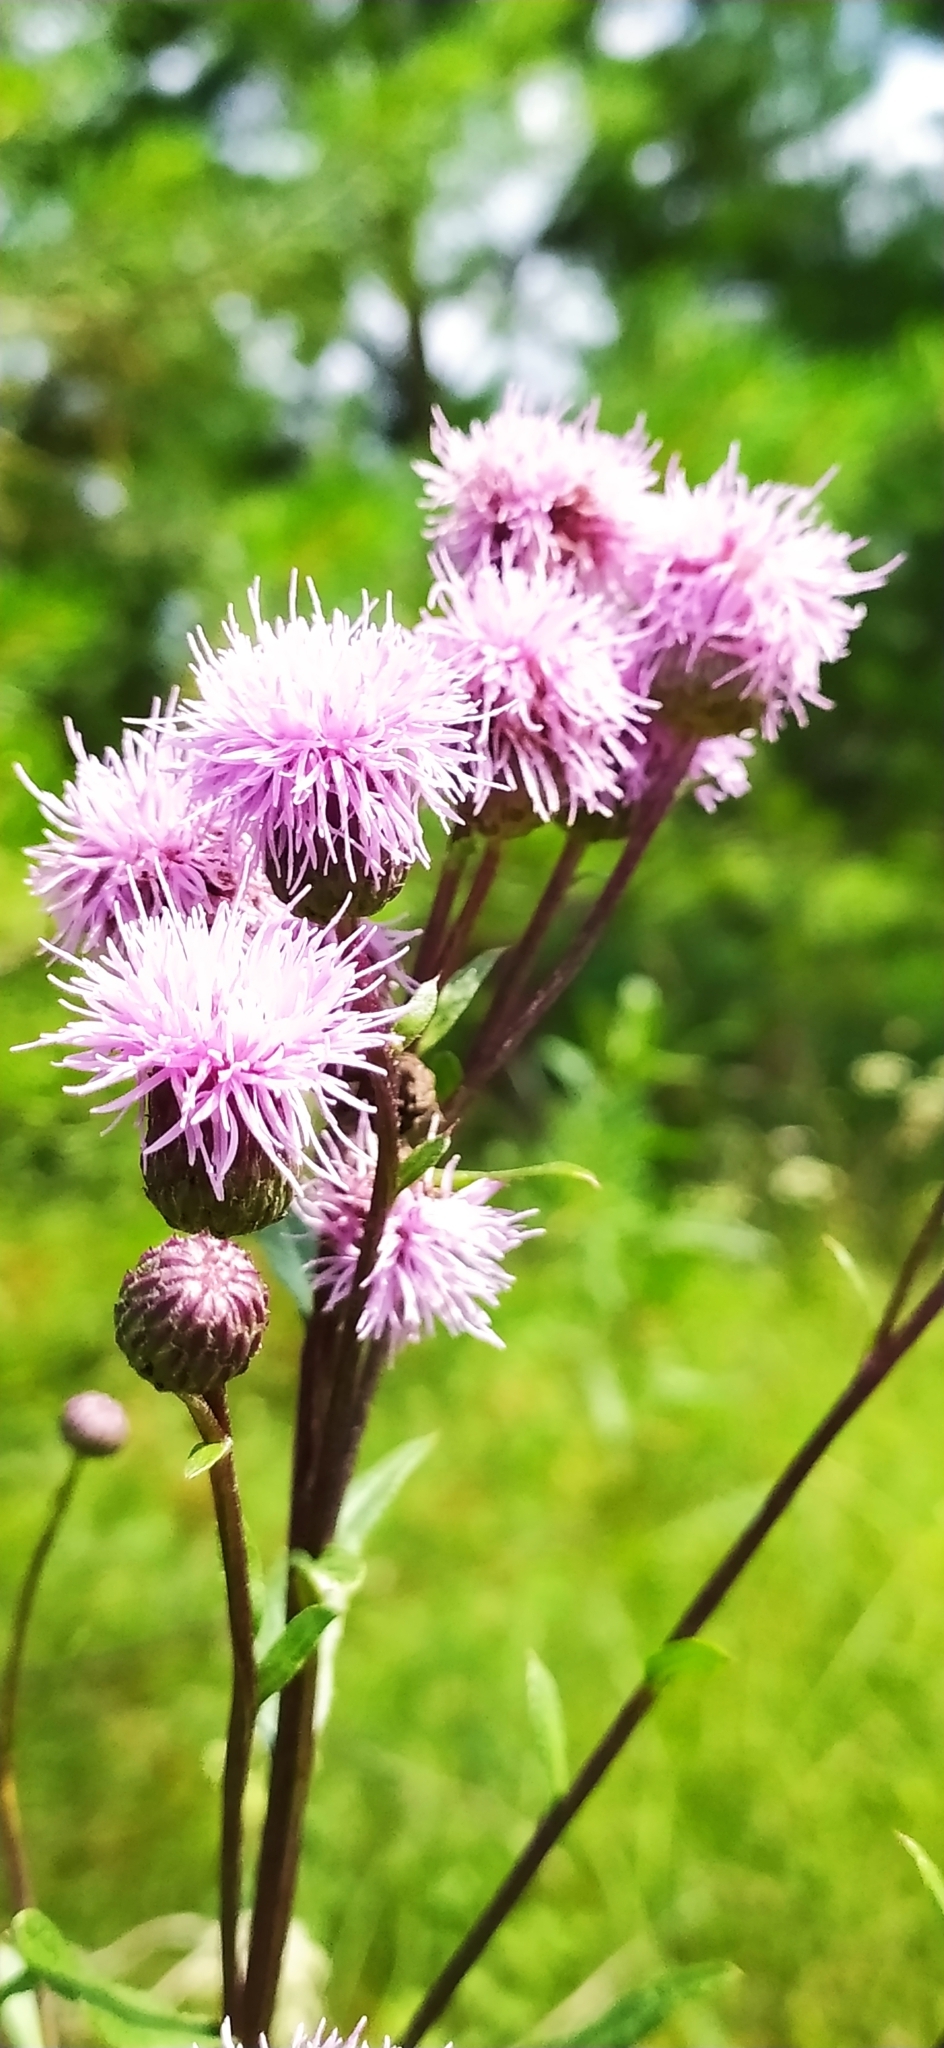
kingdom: Plantae
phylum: Tracheophyta
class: Magnoliopsida
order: Asterales
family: Asteraceae
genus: Cirsium
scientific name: Cirsium arvense
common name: Creeping thistle
